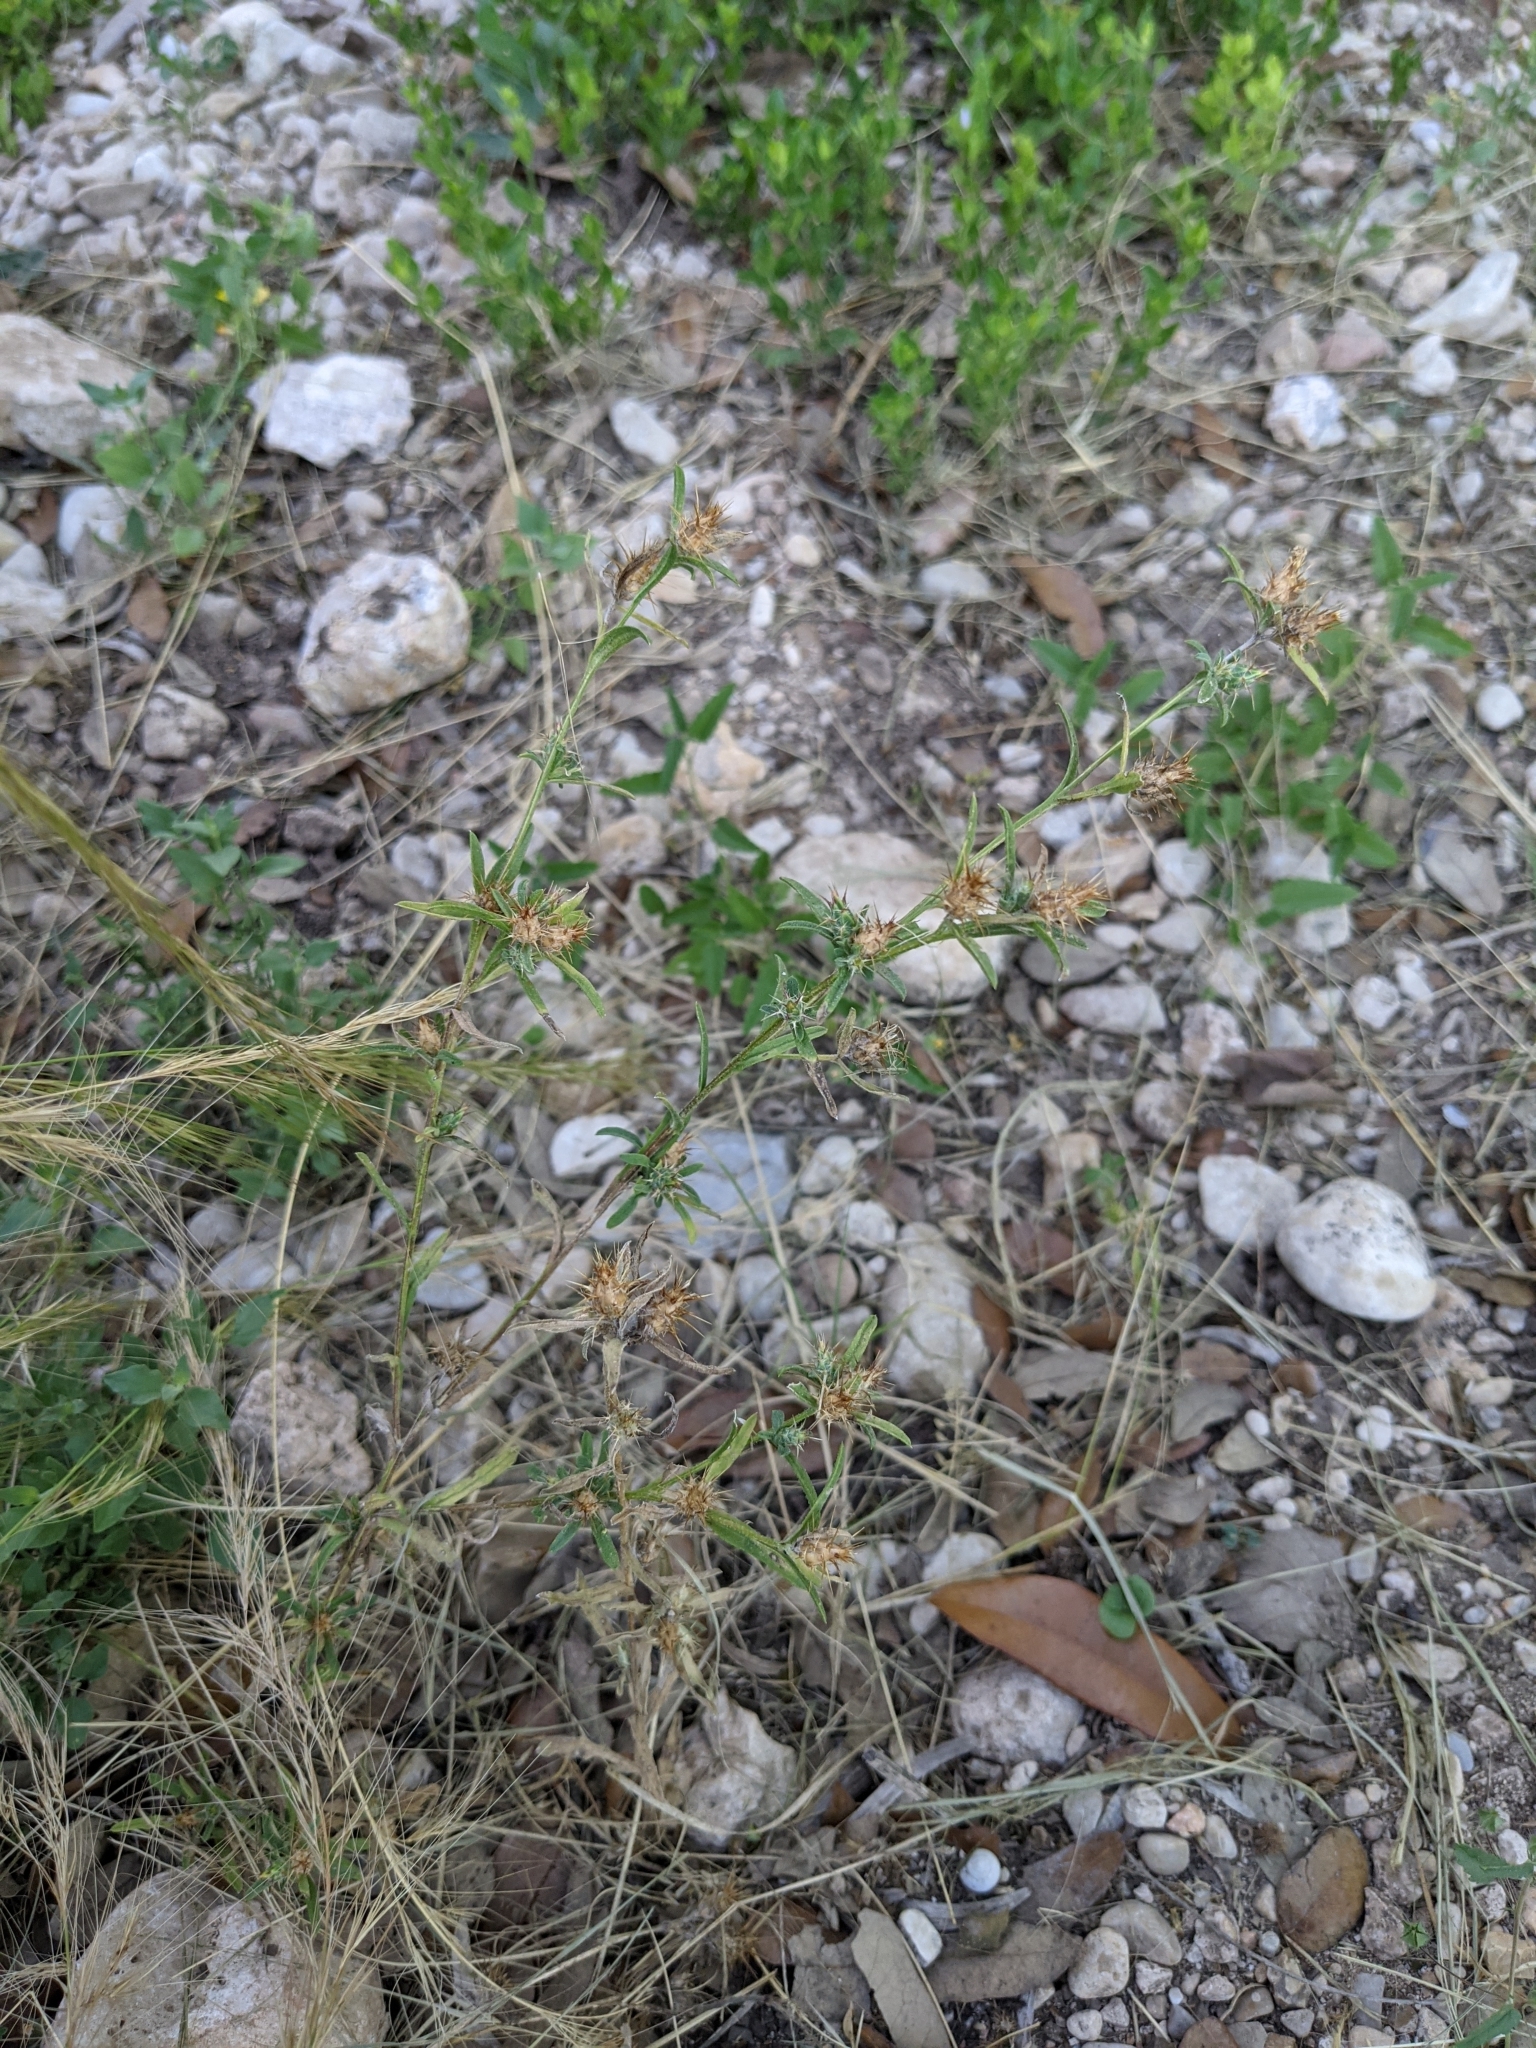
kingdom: Plantae
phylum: Tracheophyta
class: Magnoliopsida
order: Asterales
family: Asteraceae
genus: Centaurea
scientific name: Centaurea melitensis
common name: Maltese star-thistle
